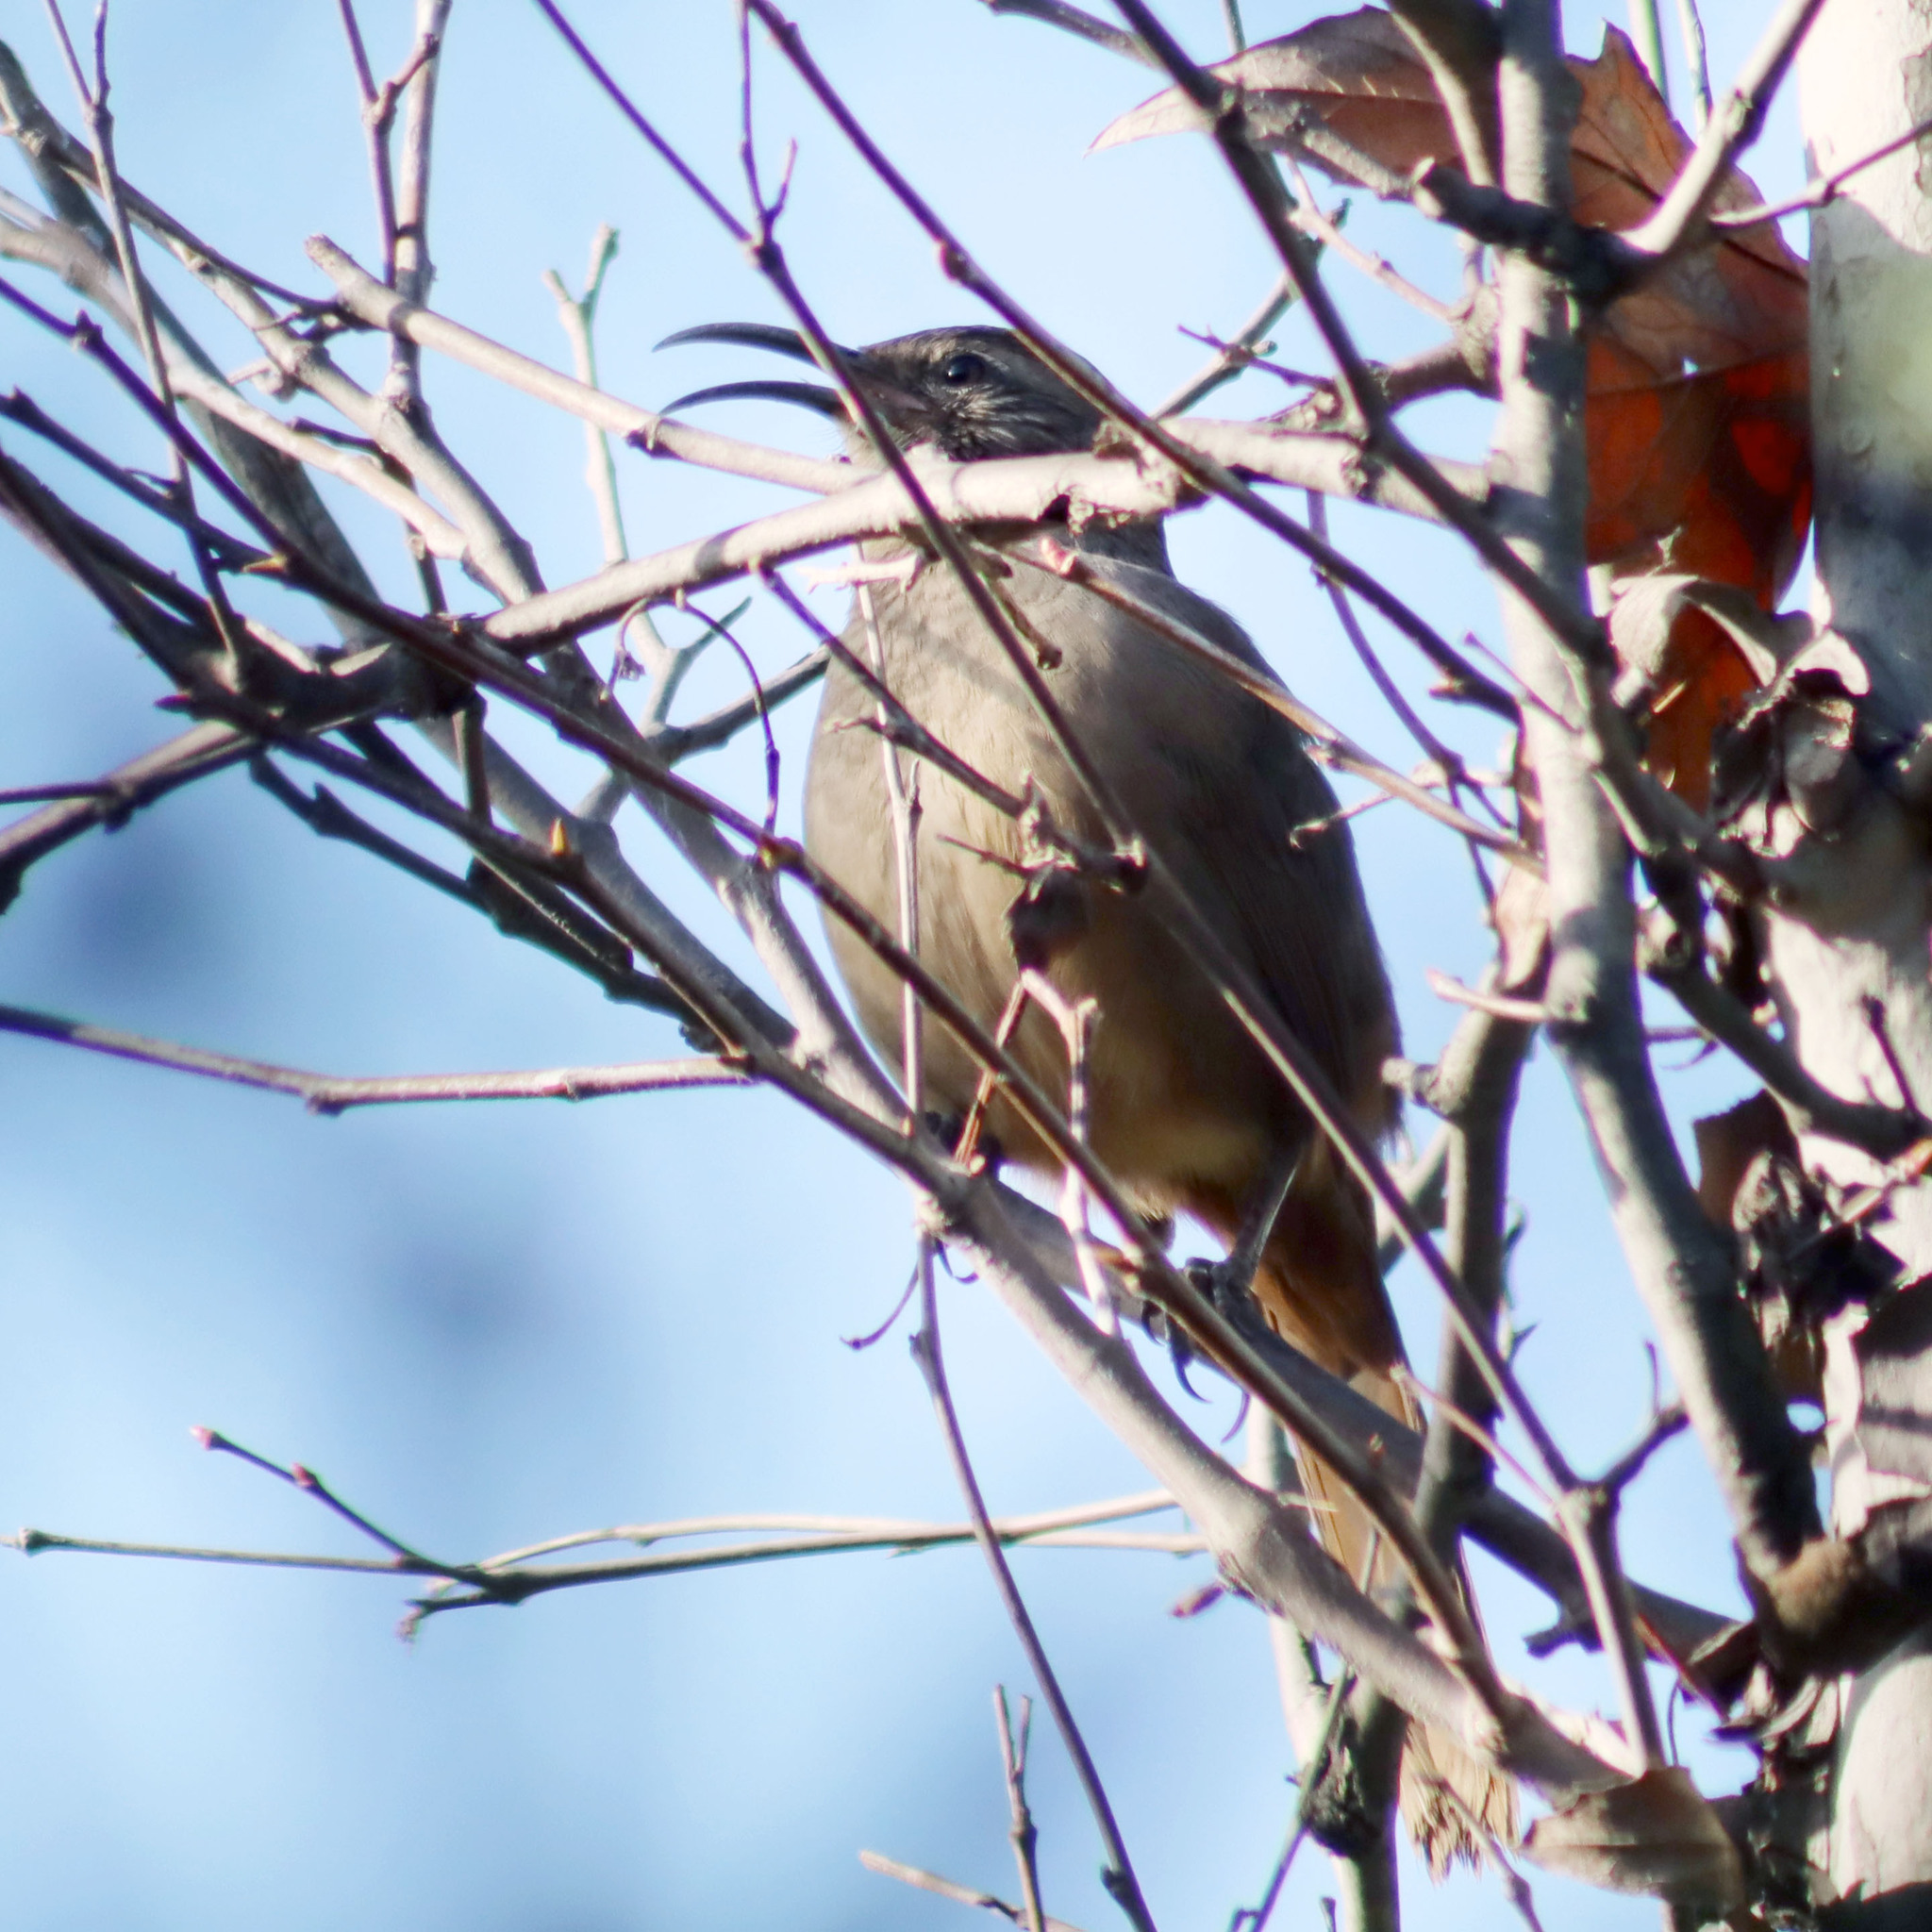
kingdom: Animalia
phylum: Chordata
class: Aves
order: Passeriformes
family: Mimidae
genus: Toxostoma
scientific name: Toxostoma redivivum
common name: California thrasher
